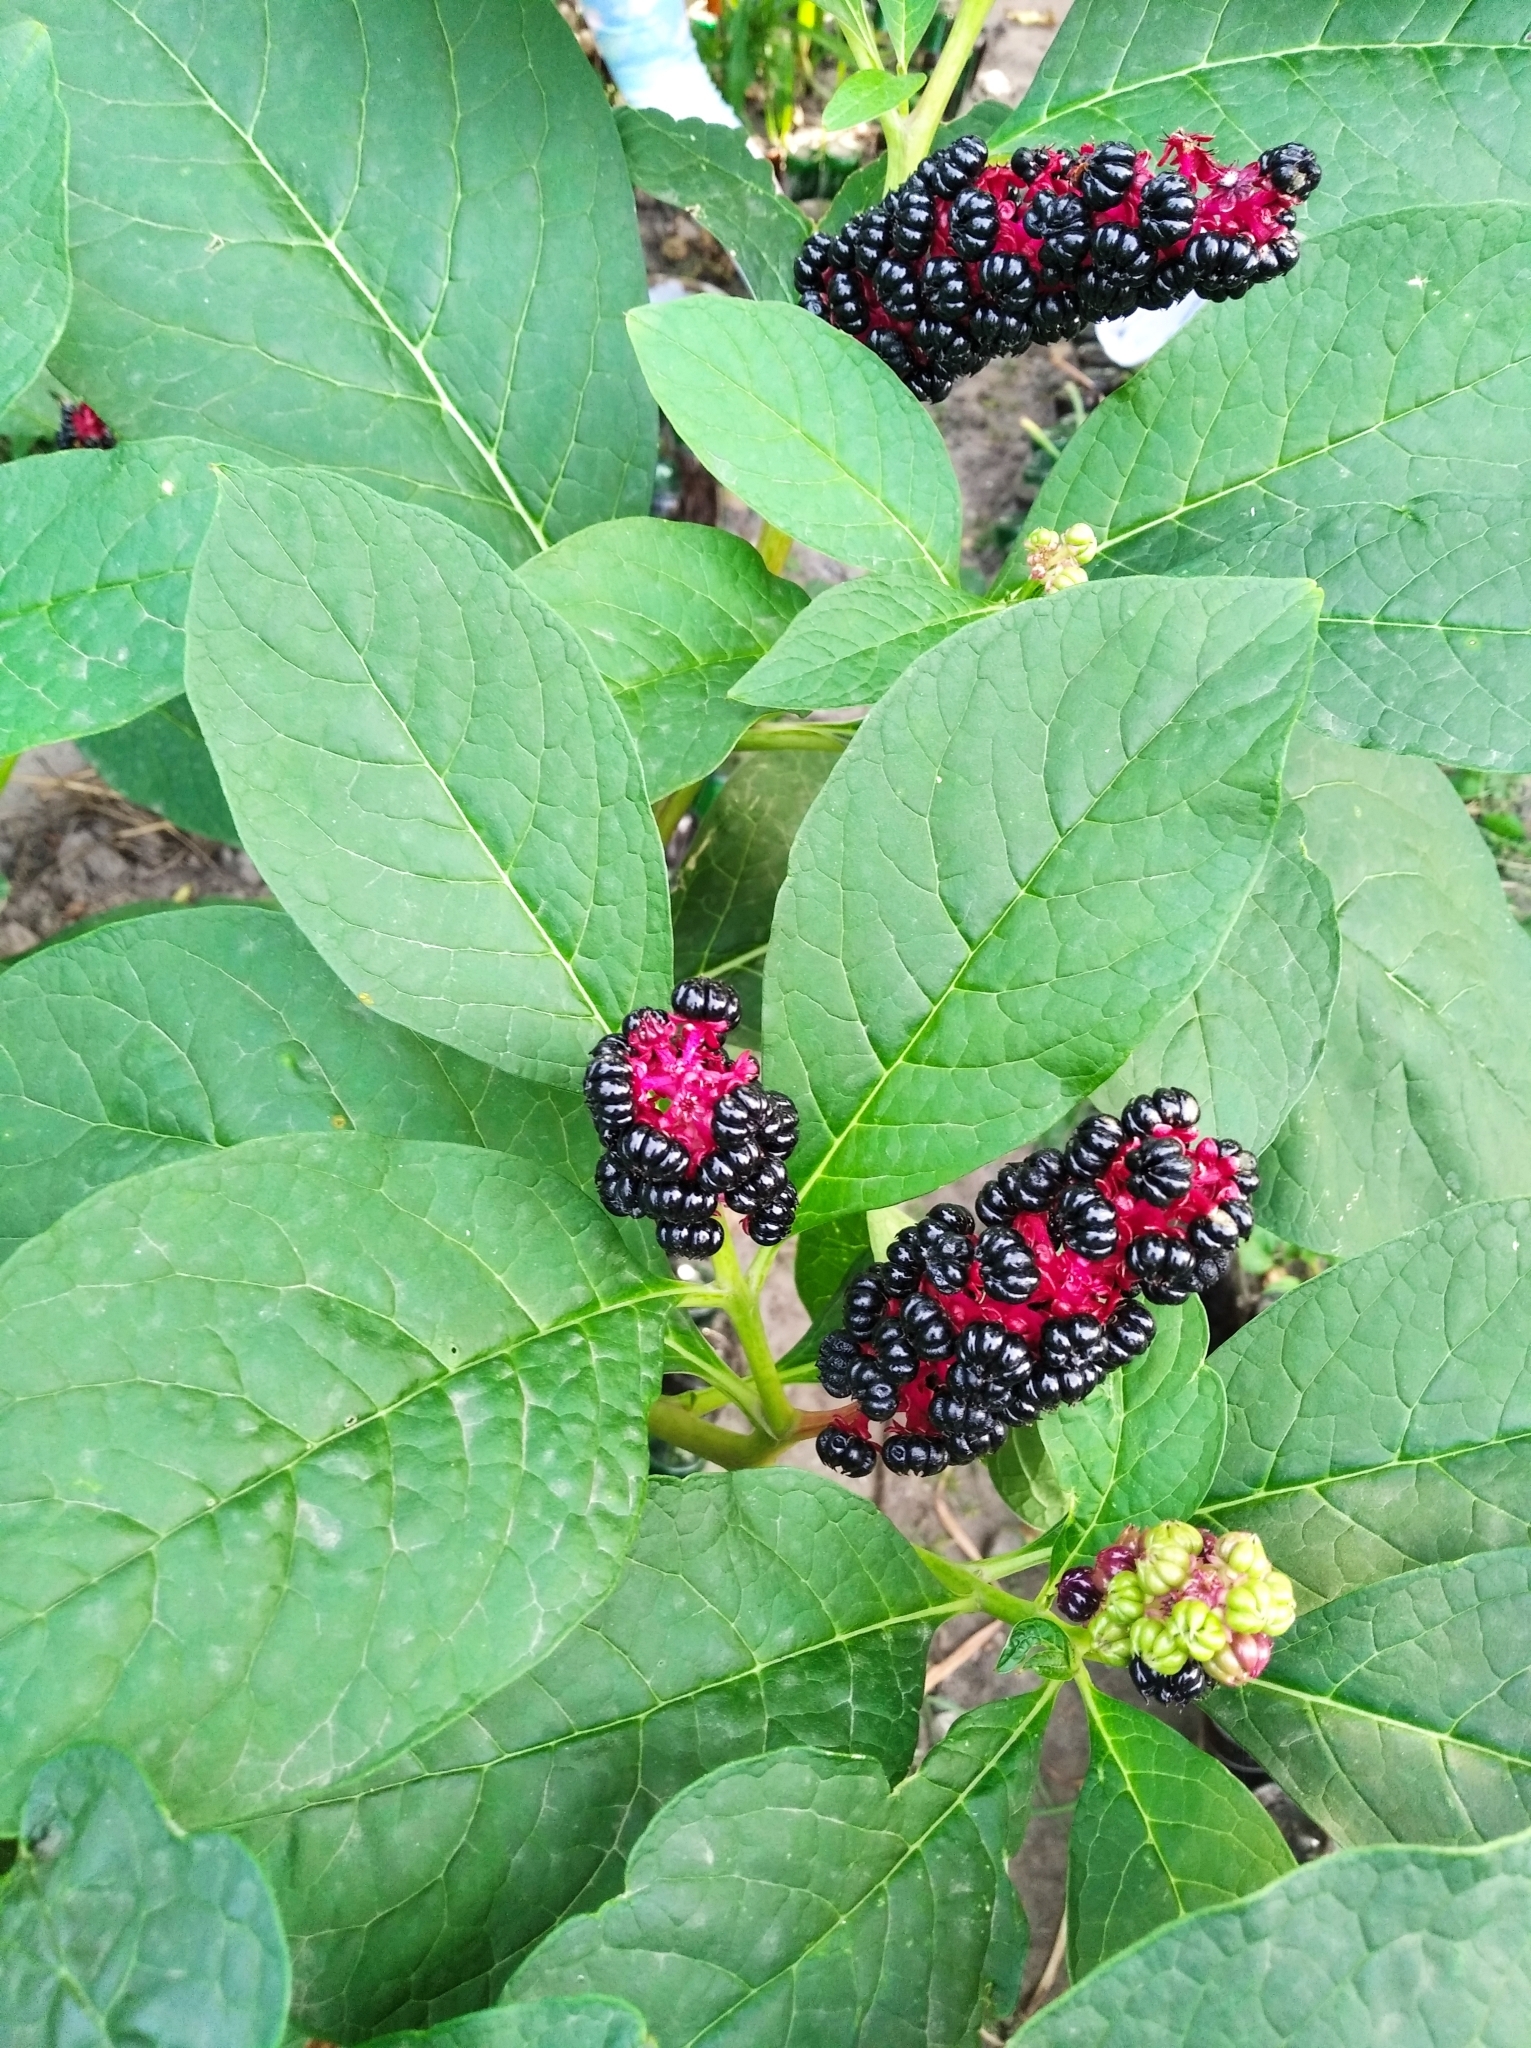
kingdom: Plantae
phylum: Tracheophyta
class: Magnoliopsida
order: Caryophyllales
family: Phytolaccaceae
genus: Phytolacca
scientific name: Phytolacca acinosa
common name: Indian pokeweed
